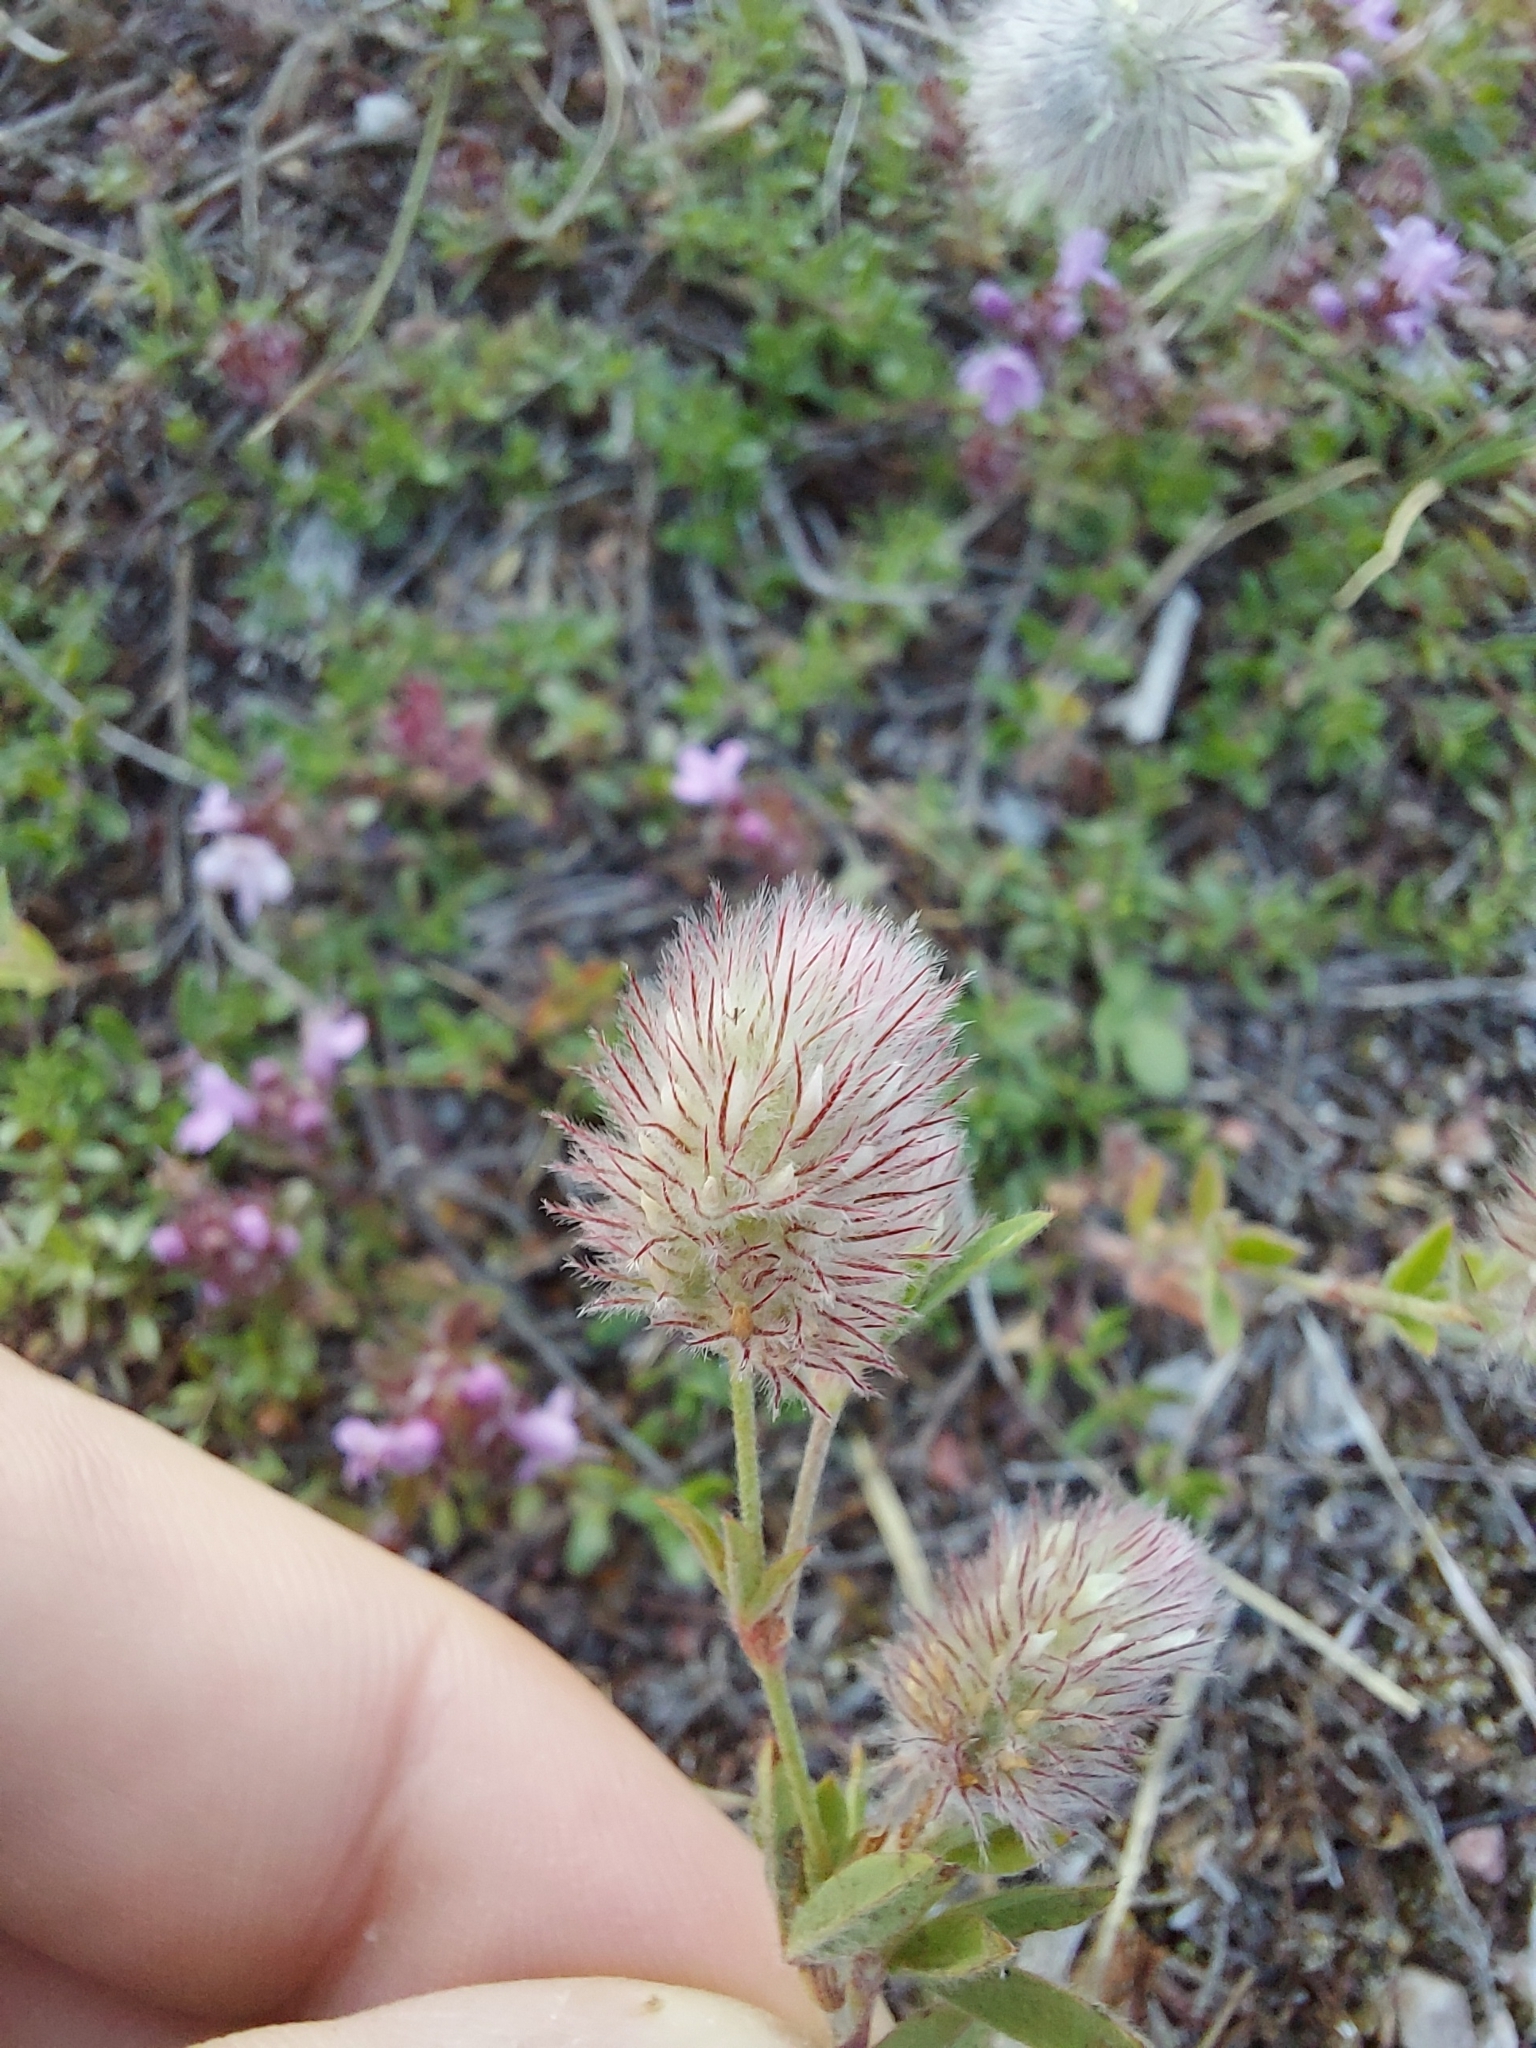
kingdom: Plantae
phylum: Tracheophyta
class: Magnoliopsida
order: Fabales
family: Fabaceae
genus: Trifolium
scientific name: Trifolium arvense
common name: Hare's-foot clover
